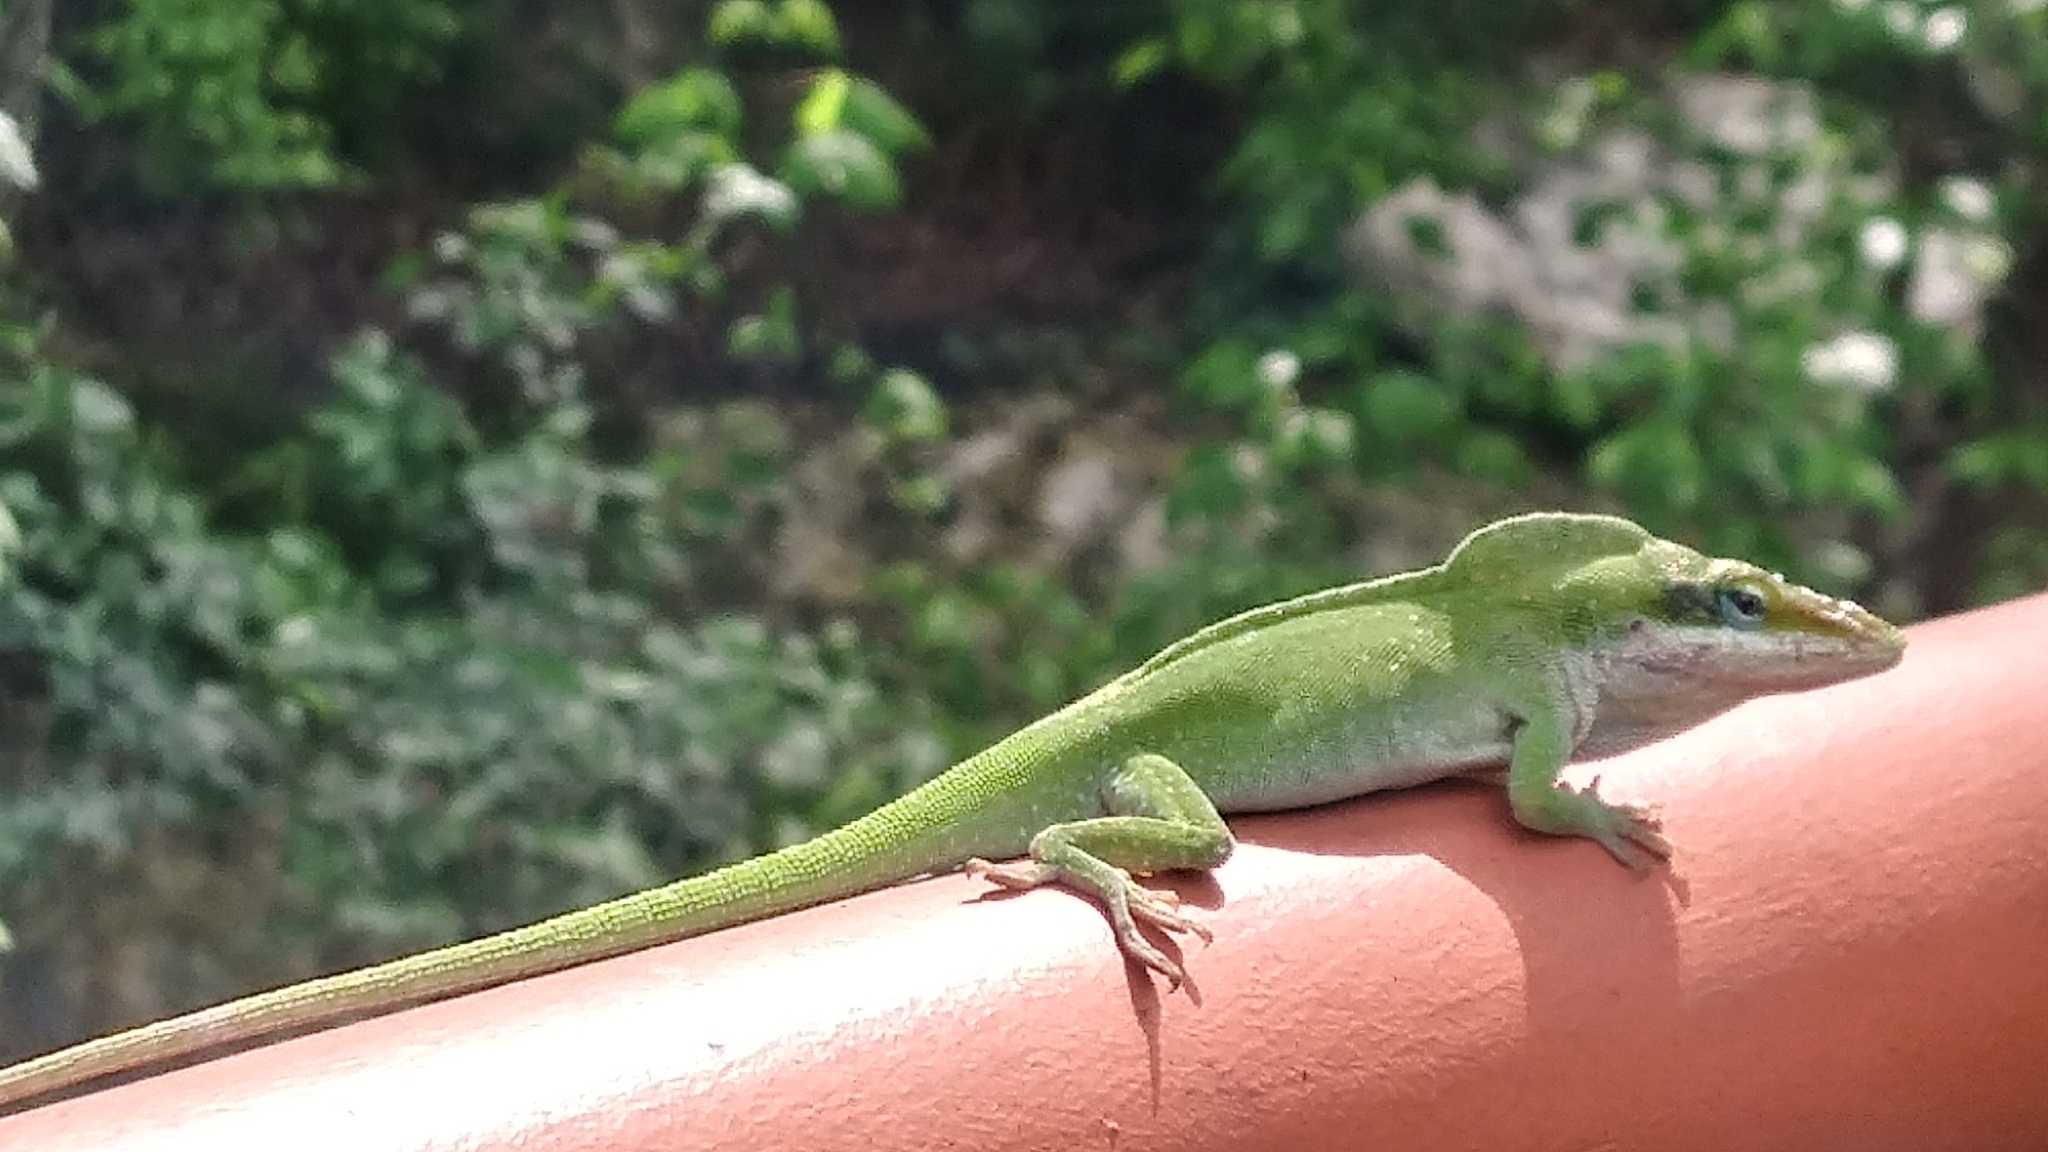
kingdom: Animalia
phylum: Chordata
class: Squamata
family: Dactyloidae
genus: Anolis
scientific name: Anolis carolinensis
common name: Green anole
